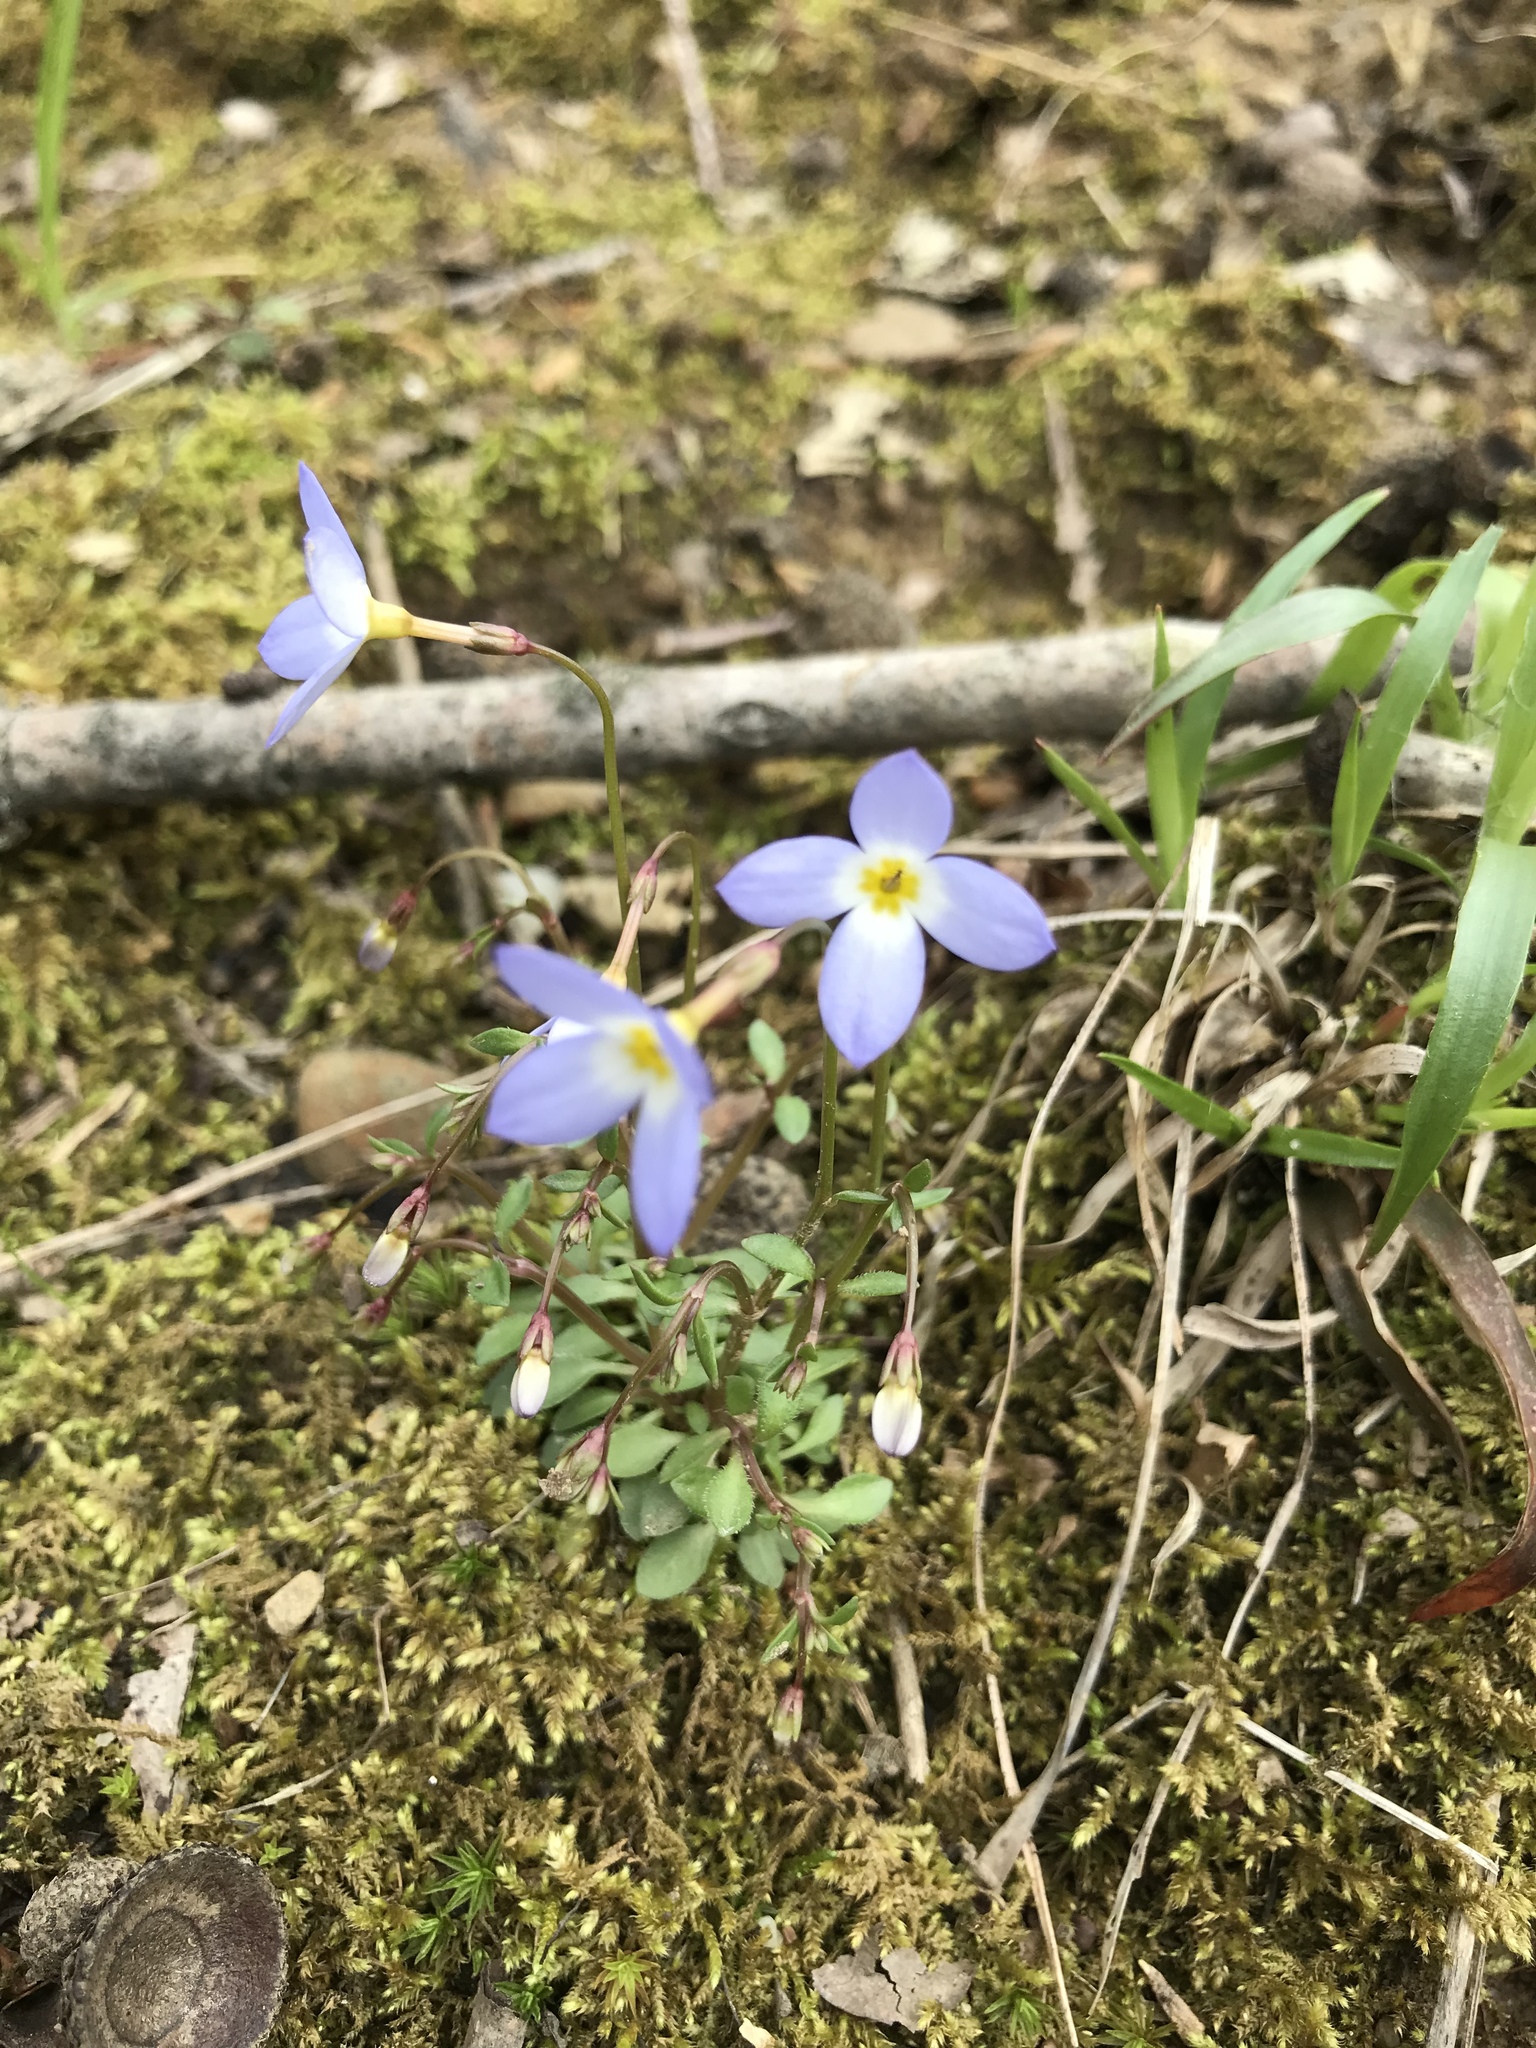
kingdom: Plantae
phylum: Tracheophyta
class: Magnoliopsida
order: Gentianales
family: Rubiaceae
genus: Houstonia
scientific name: Houstonia caerulea
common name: Bluets
